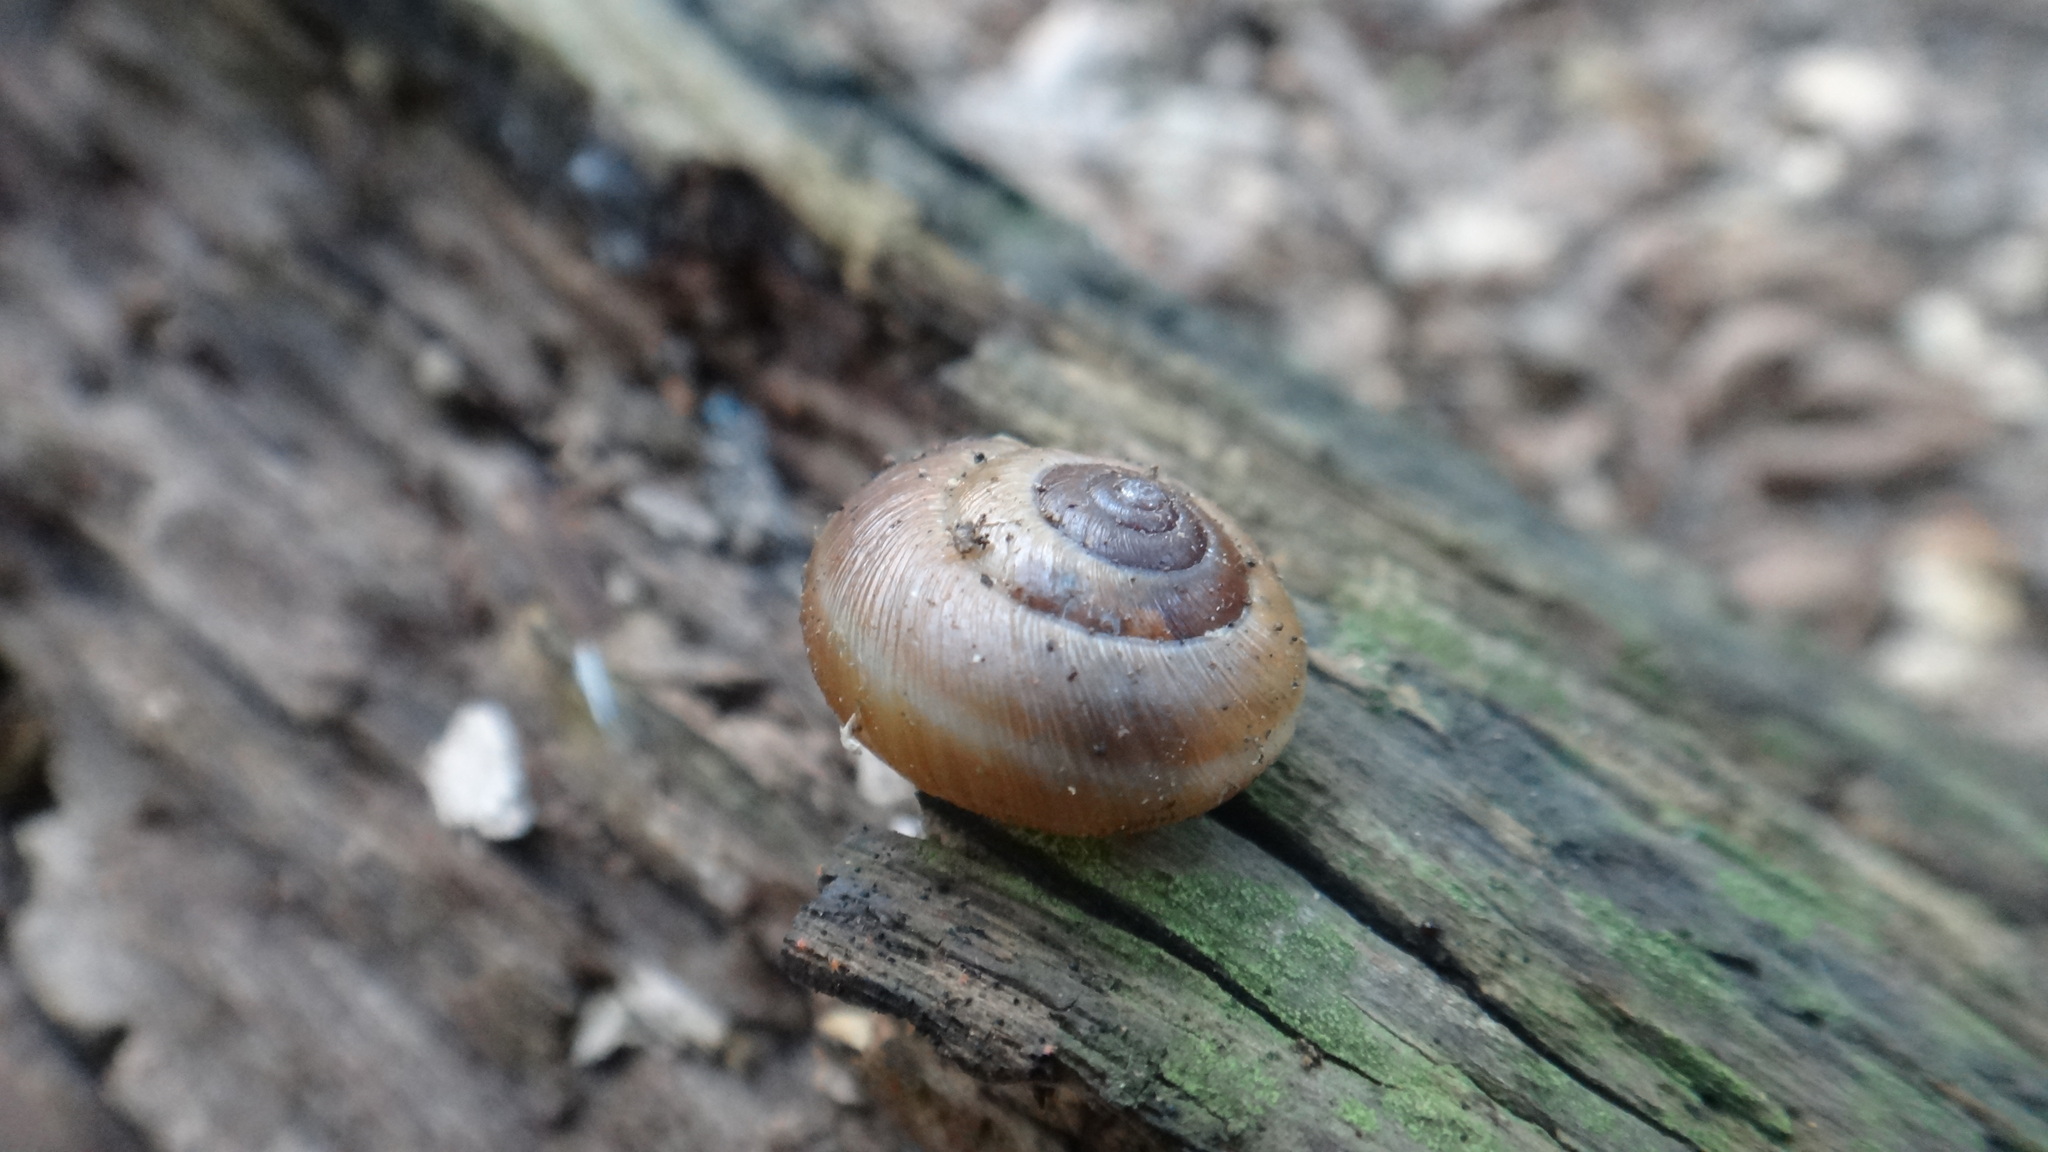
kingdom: Animalia
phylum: Mollusca
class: Gastropoda
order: Stylommatophora
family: Hygromiidae
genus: Euomphalia
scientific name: Euomphalia strigella
